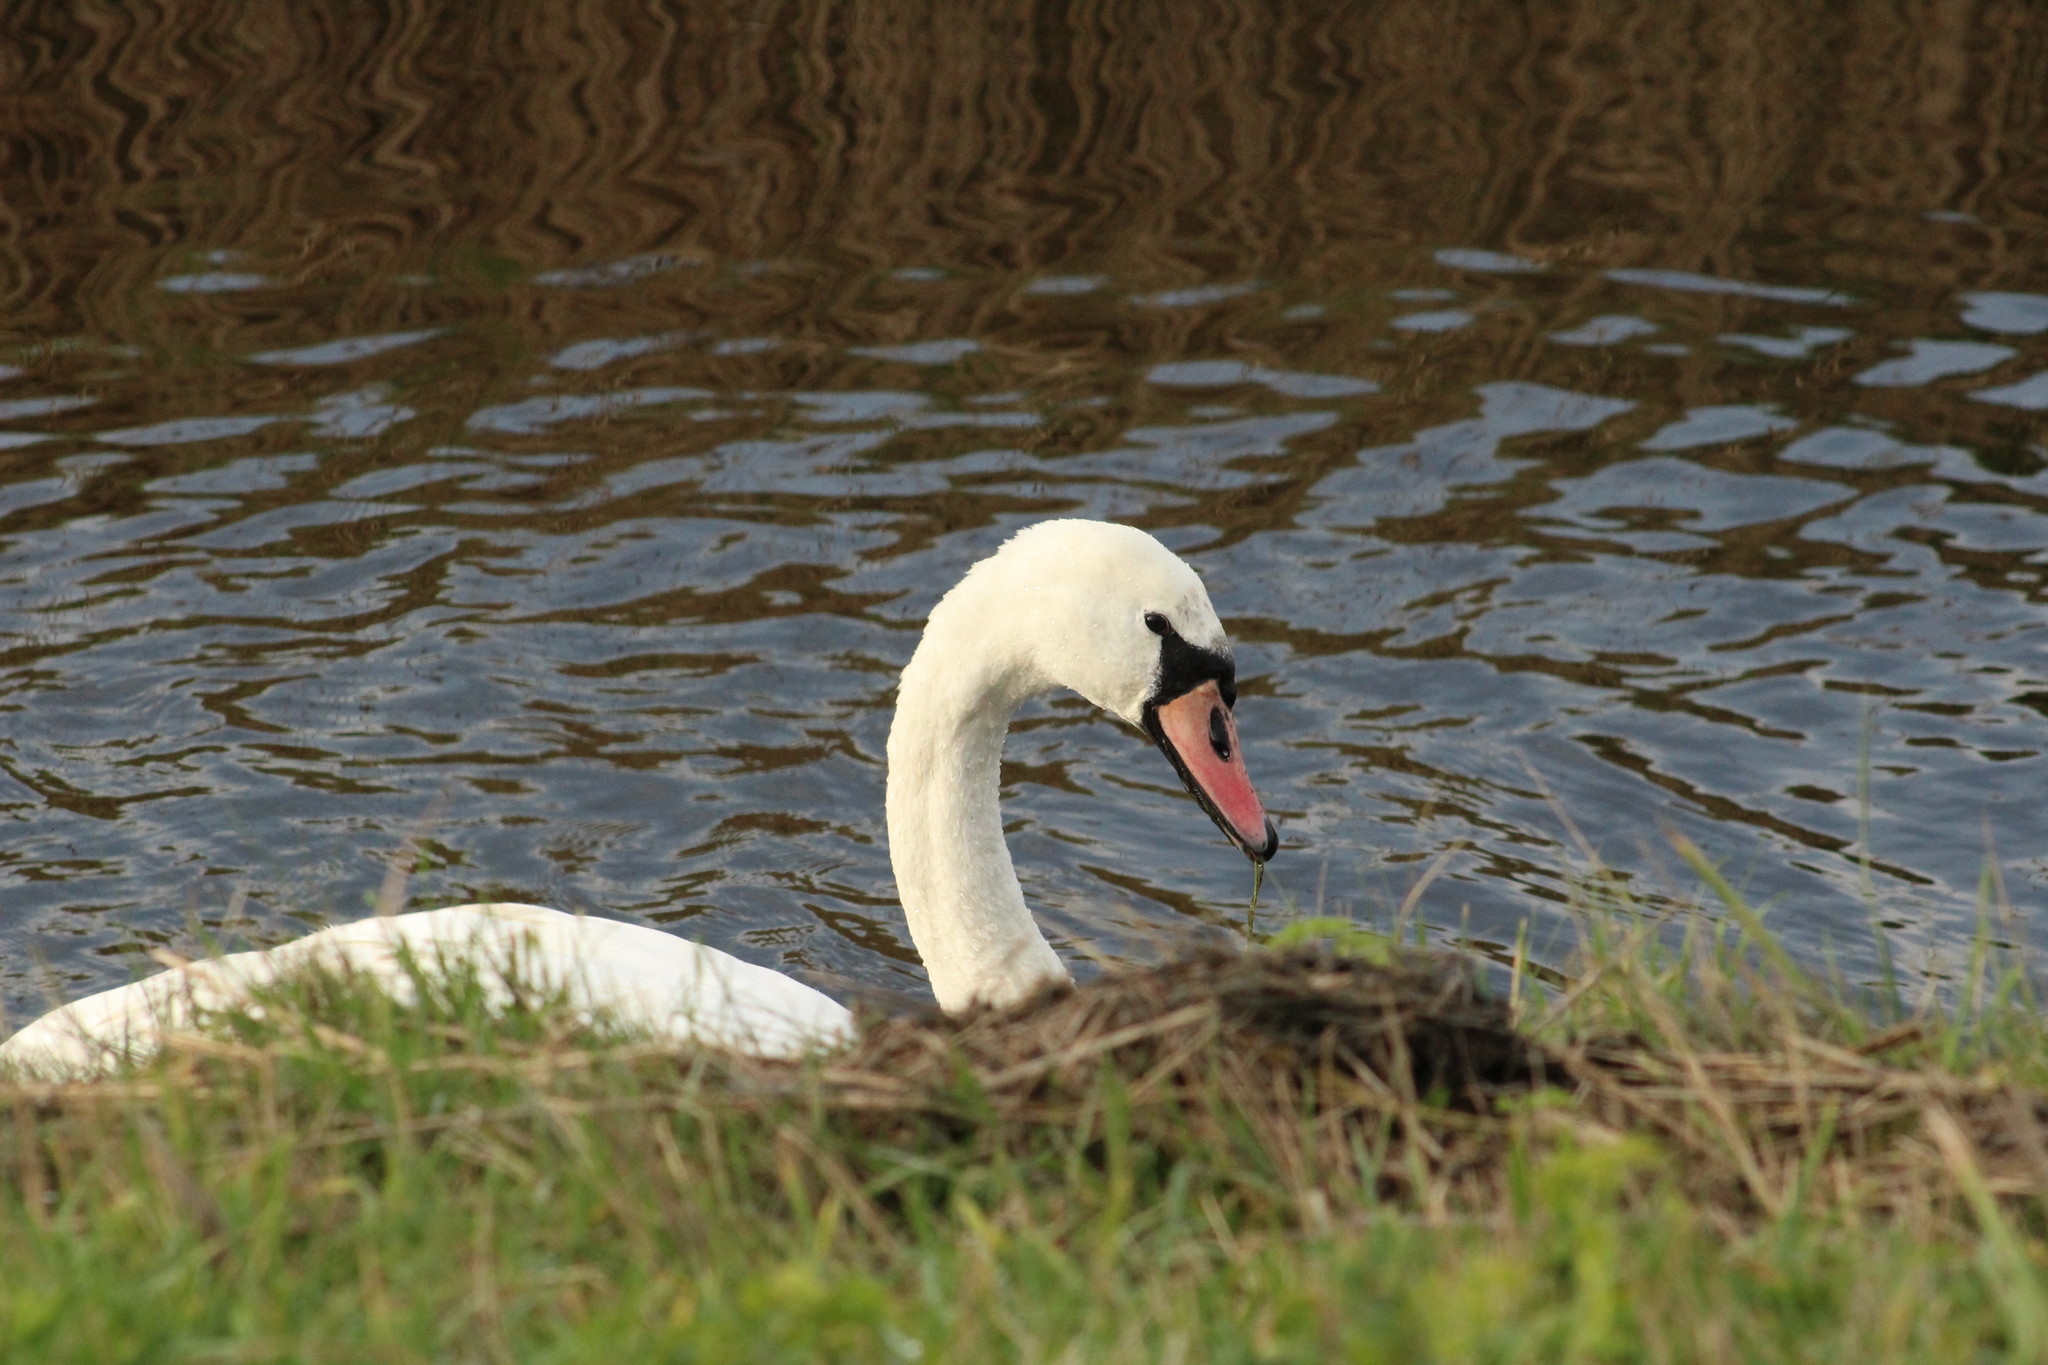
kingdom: Animalia
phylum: Chordata
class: Aves
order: Anseriformes
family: Anatidae
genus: Cygnus
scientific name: Cygnus olor
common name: Mute swan
